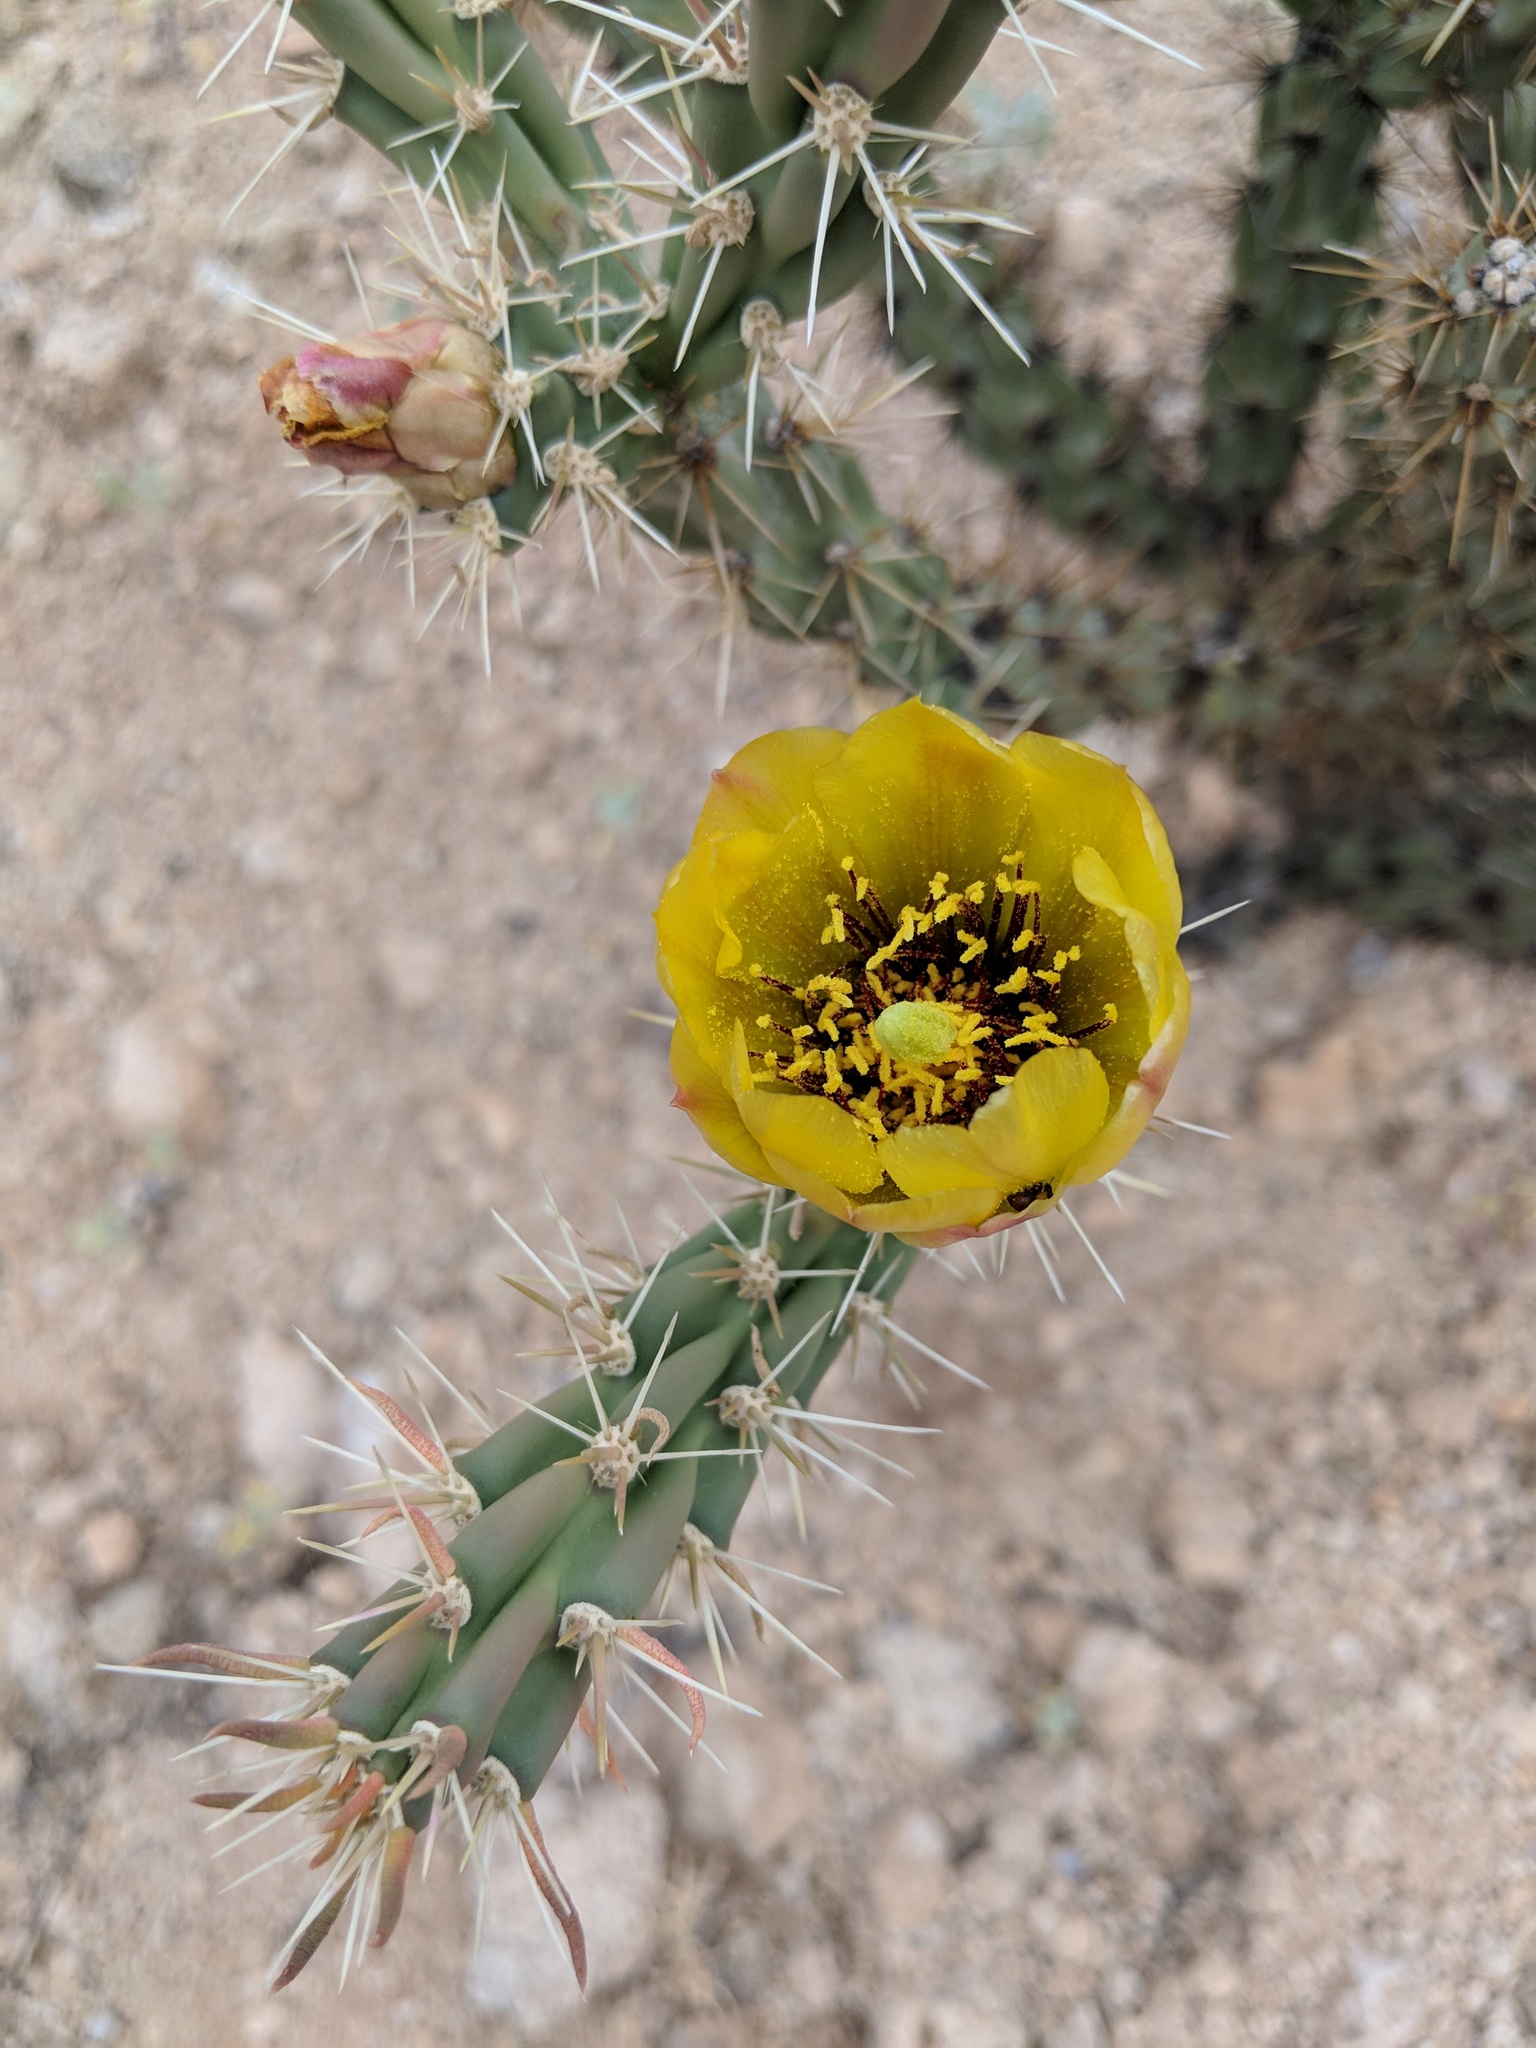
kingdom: Plantae
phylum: Tracheophyta
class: Magnoliopsida
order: Caryophyllales
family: Cactaceae
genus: Cylindropuntia
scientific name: Cylindropuntia acanthocarpa
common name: Buckhorn cholla
